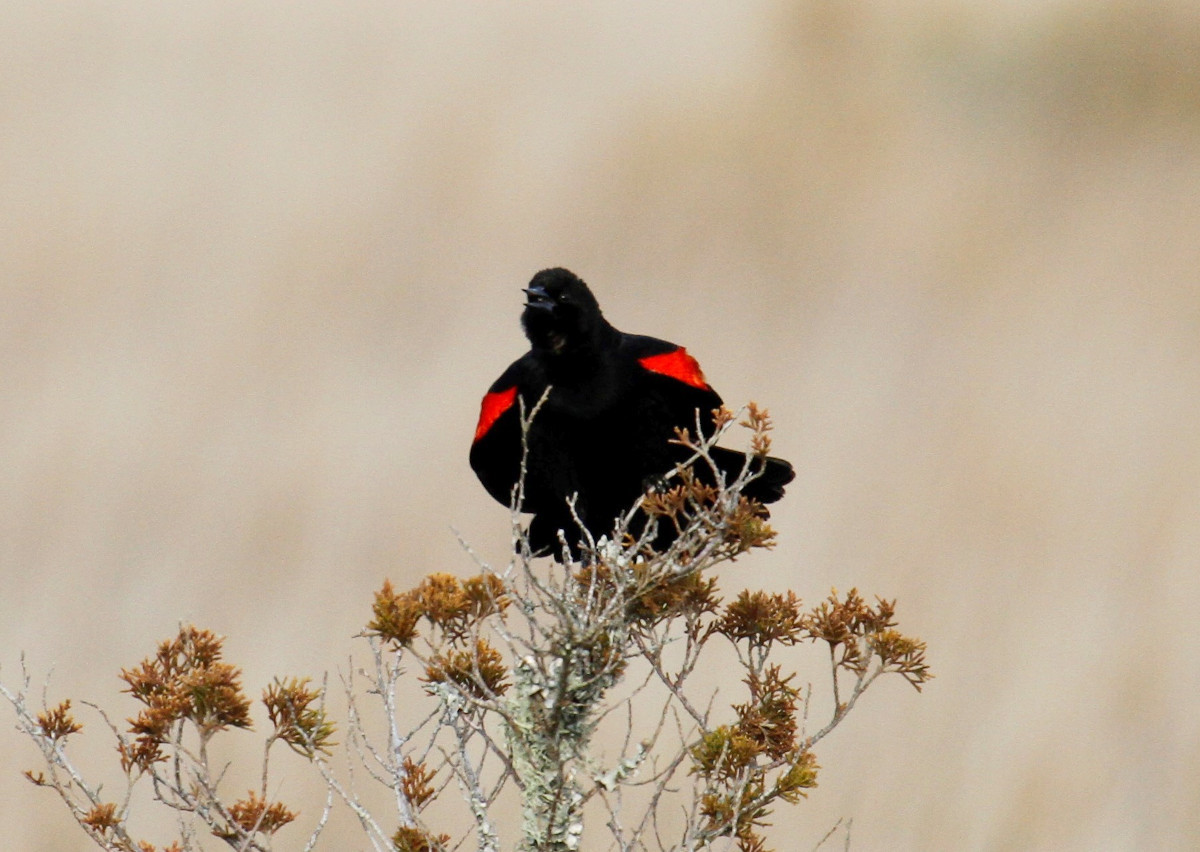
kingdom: Animalia
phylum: Chordata
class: Aves
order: Passeriformes
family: Icteridae
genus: Agelaius
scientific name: Agelaius phoeniceus
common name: Red-winged blackbird
